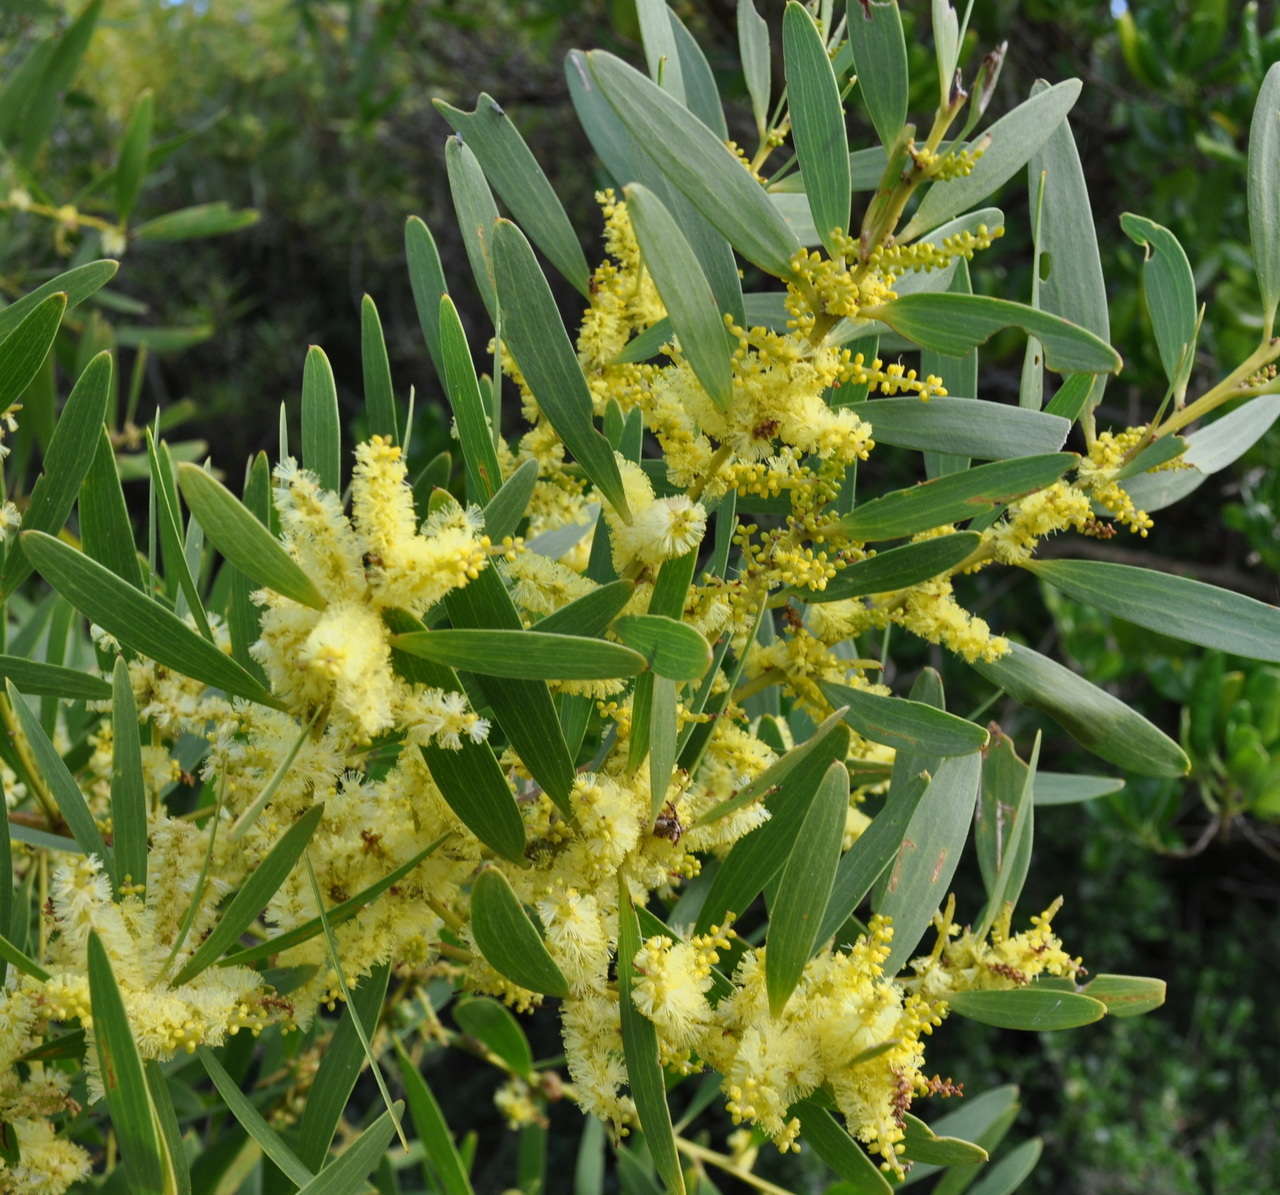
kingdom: Plantae
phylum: Tracheophyta
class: Magnoliopsida
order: Fabales
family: Fabaceae
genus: Acacia
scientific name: Acacia longifolia
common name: Sydney golden wattle
